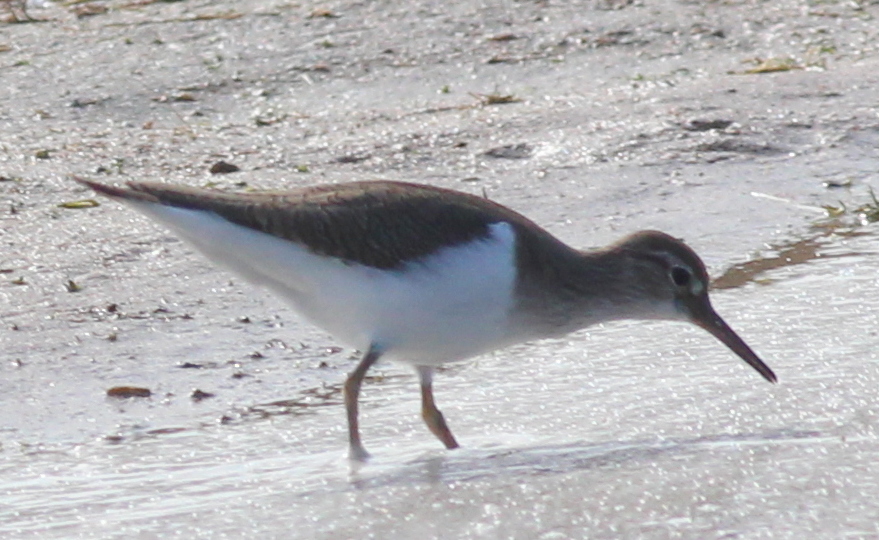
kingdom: Animalia
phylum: Chordata
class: Aves
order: Charadriiformes
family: Scolopacidae
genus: Actitis
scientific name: Actitis hypoleucos
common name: Common sandpiper
